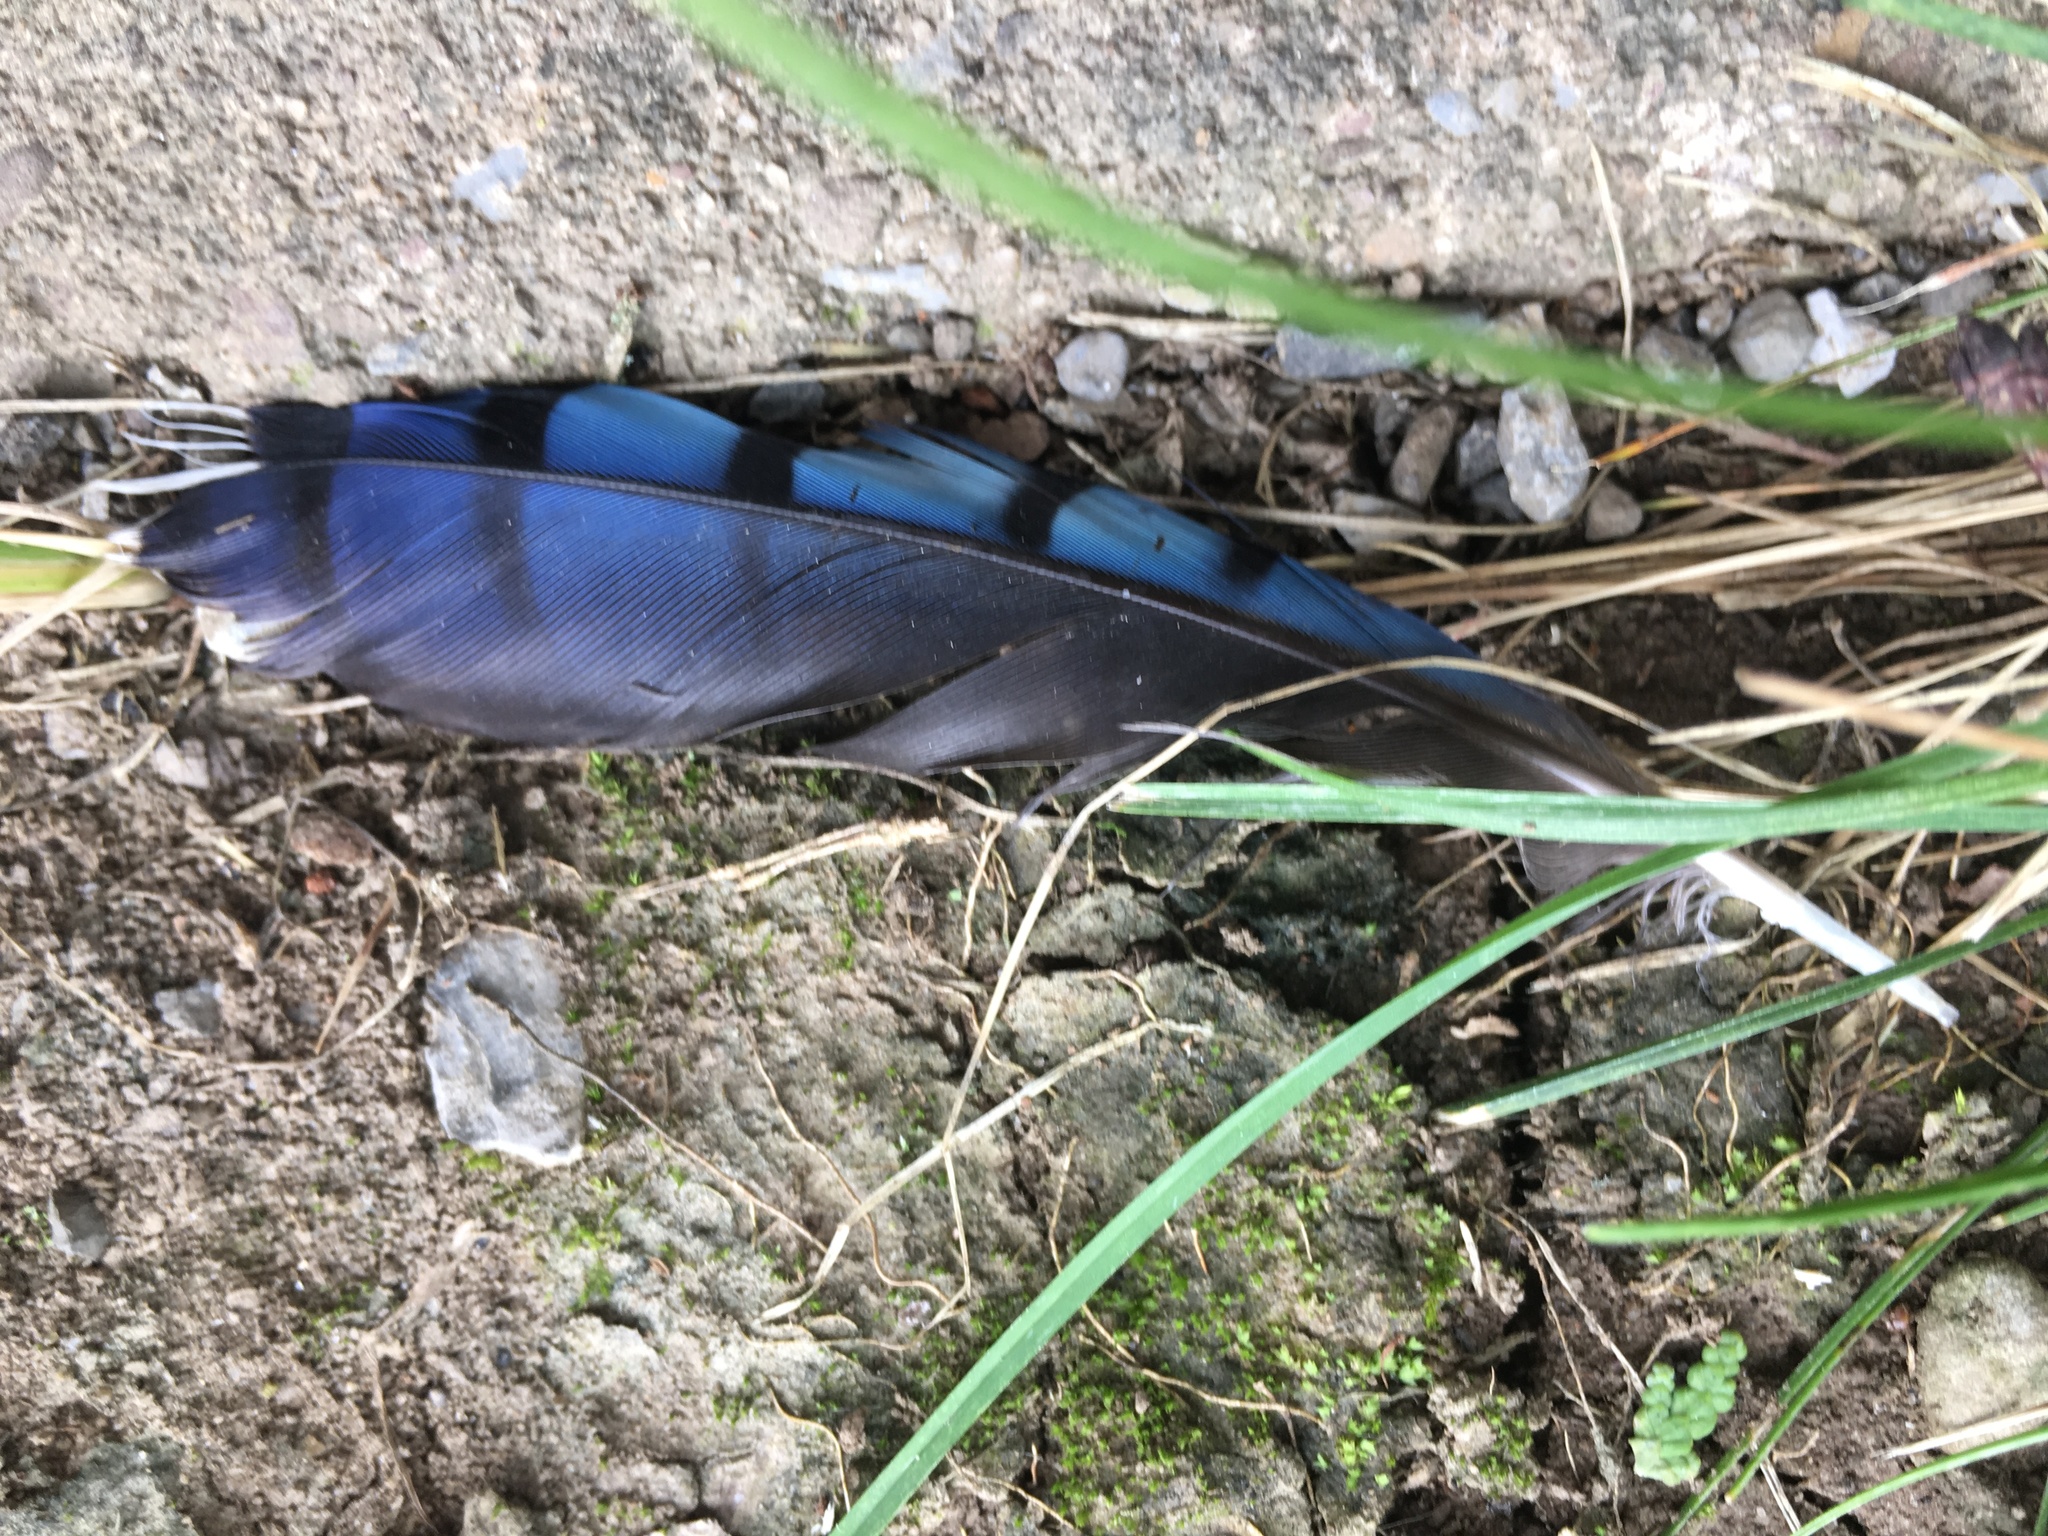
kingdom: Animalia
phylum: Chordata
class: Aves
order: Passeriformes
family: Corvidae
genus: Cyanocitta
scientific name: Cyanocitta cristata
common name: Blue jay
